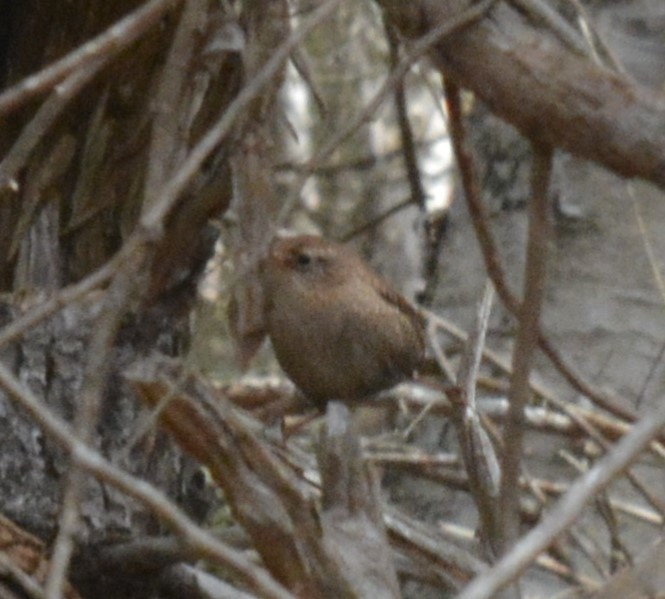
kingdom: Animalia
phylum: Chordata
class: Aves
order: Passeriformes
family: Troglodytidae
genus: Troglodytes
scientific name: Troglodytes hiemalis
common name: Winter wren
